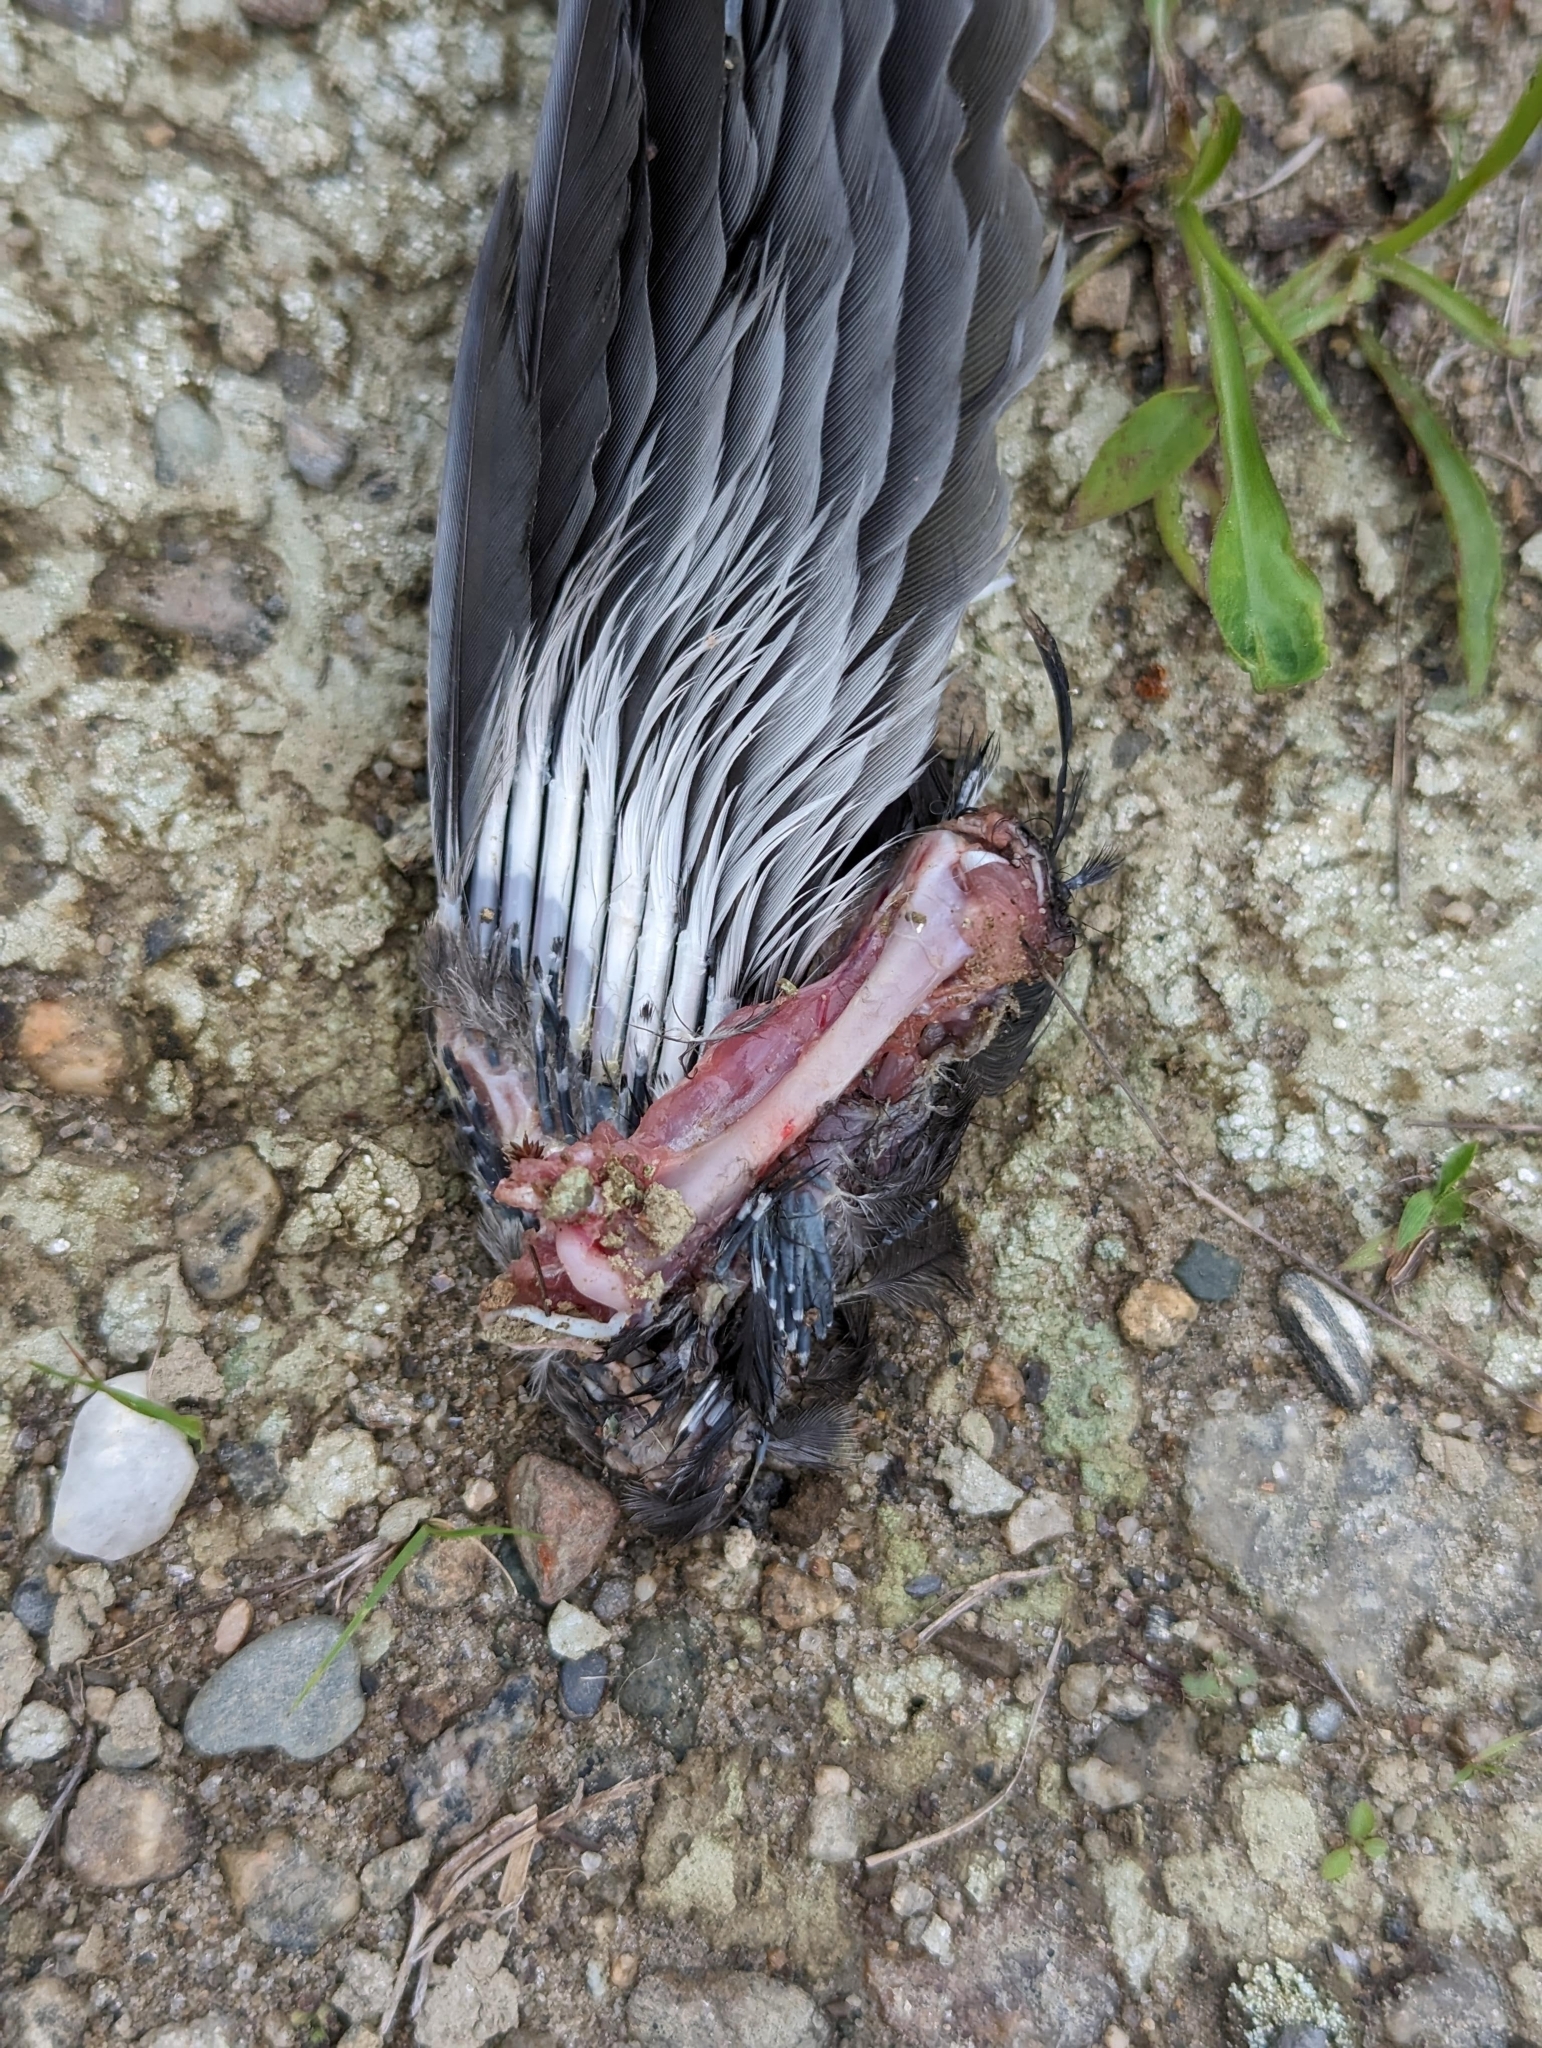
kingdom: Animalia
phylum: Chordata
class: Aves
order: Passeriformes
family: Corvidae
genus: Cyanocitta
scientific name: Cyanocitta cristata
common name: Blue jay
